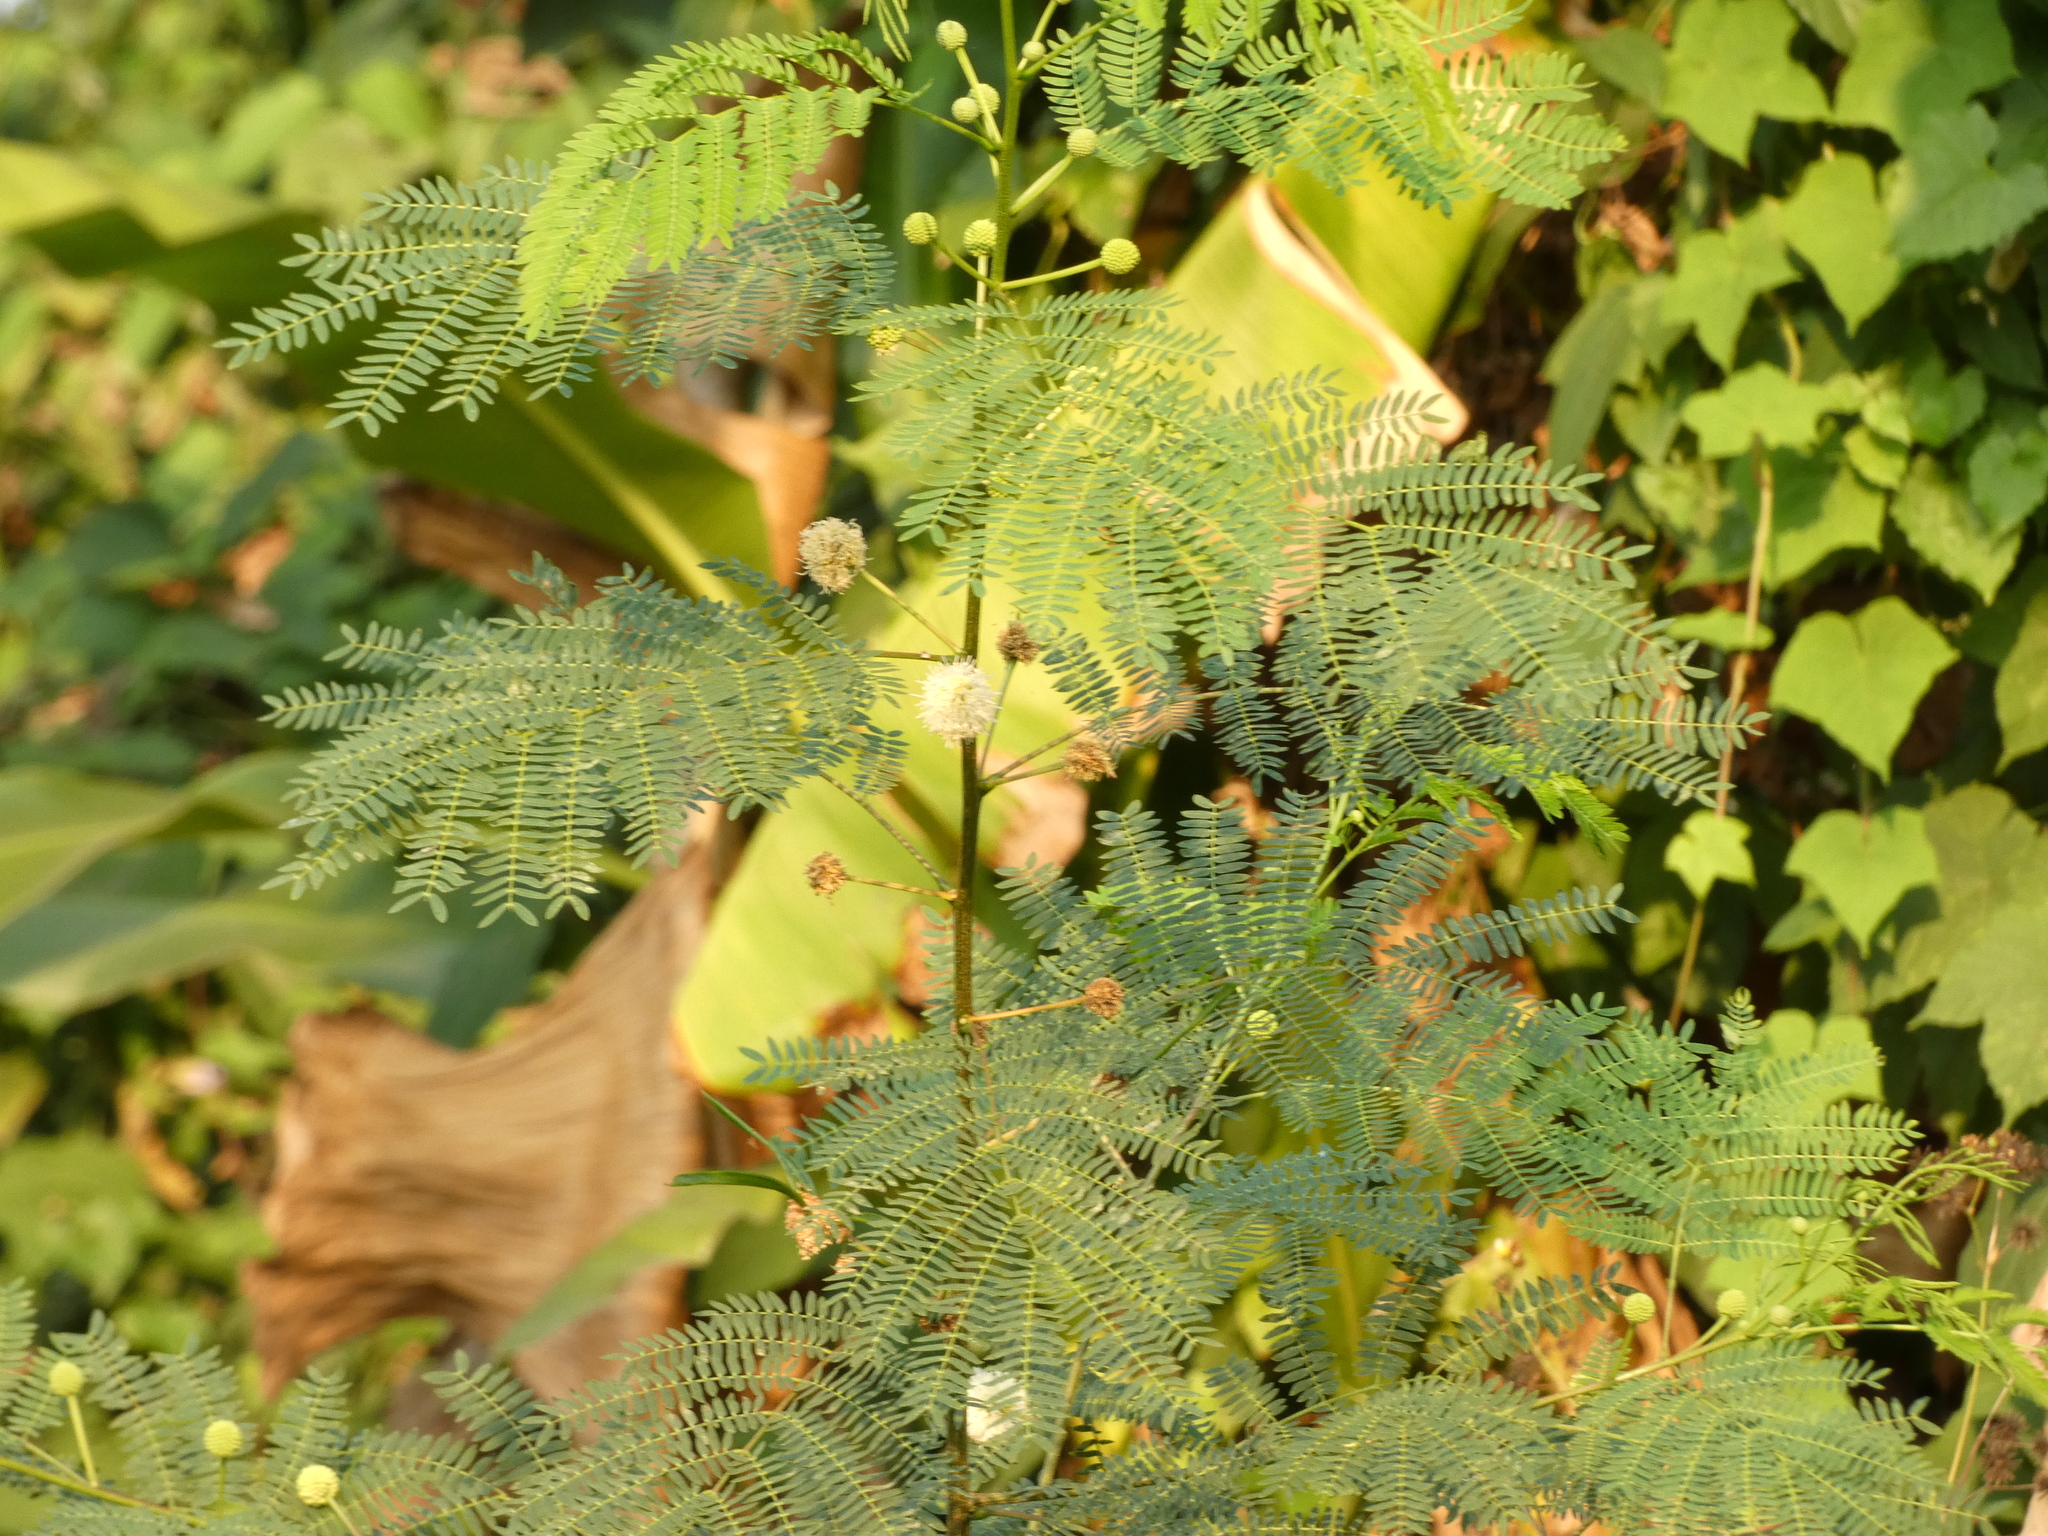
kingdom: Plantae
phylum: Tracheophyta
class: Magnoliopsida
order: Fabales
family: Fabaceae
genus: Leucaena
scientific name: Leucaena leucocephala
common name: White leadtree
